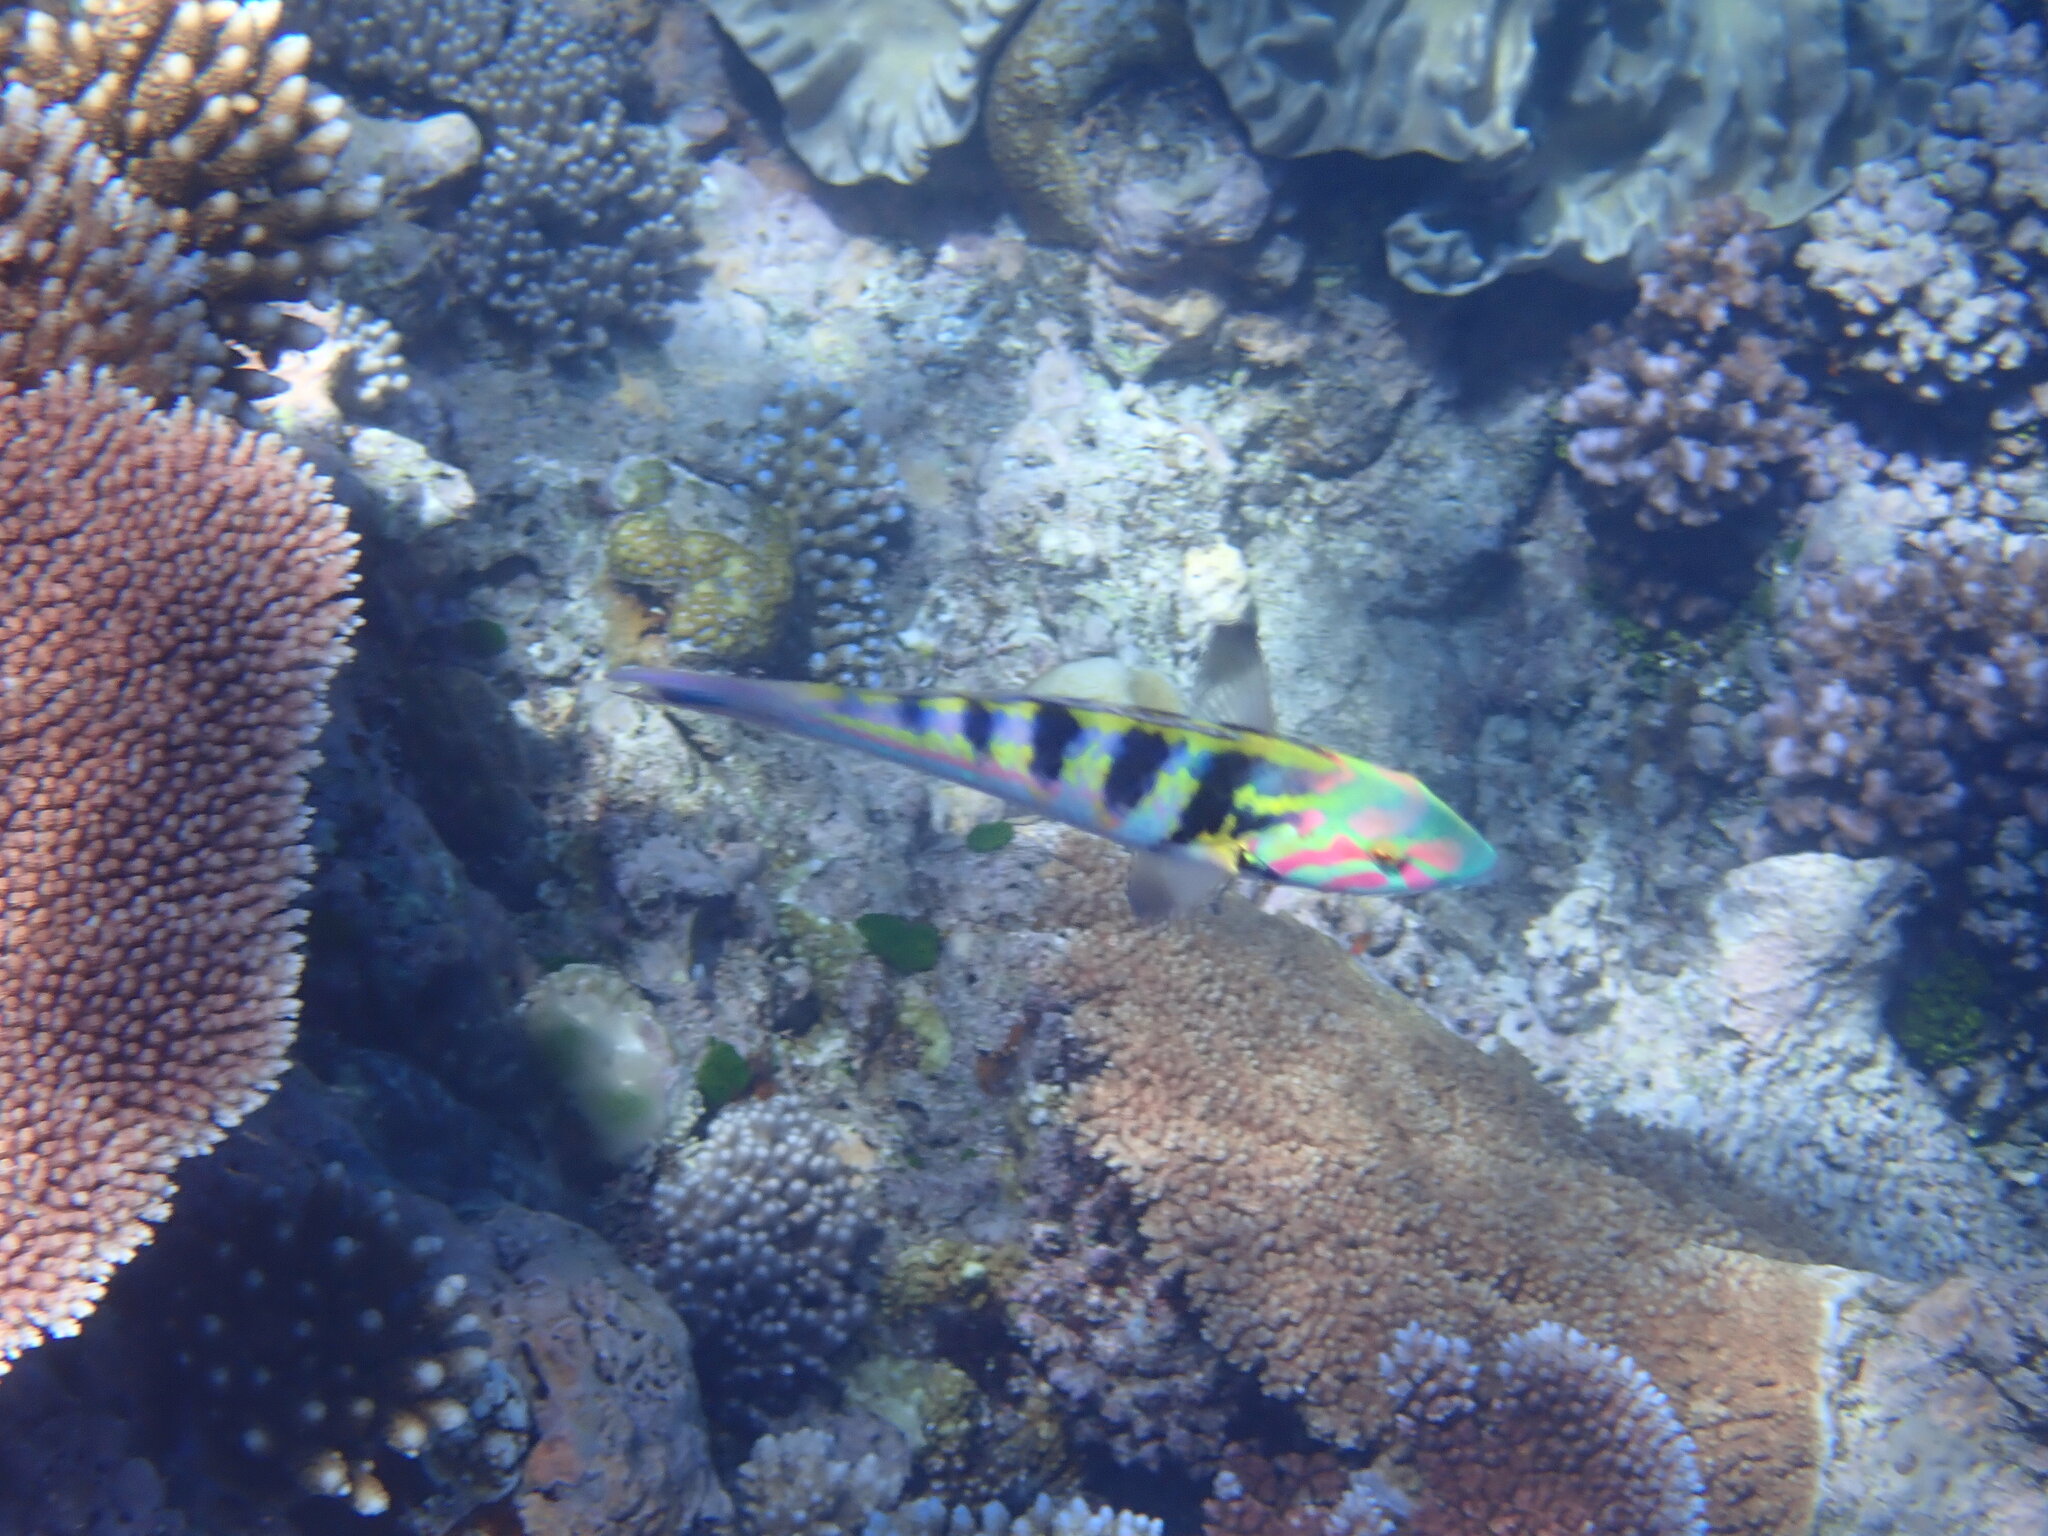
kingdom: Animalia
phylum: Chordata
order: Perciformes
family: Labridae
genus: Thalassoma
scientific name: Thalassoma hardwicke
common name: Sixbar wrasse
